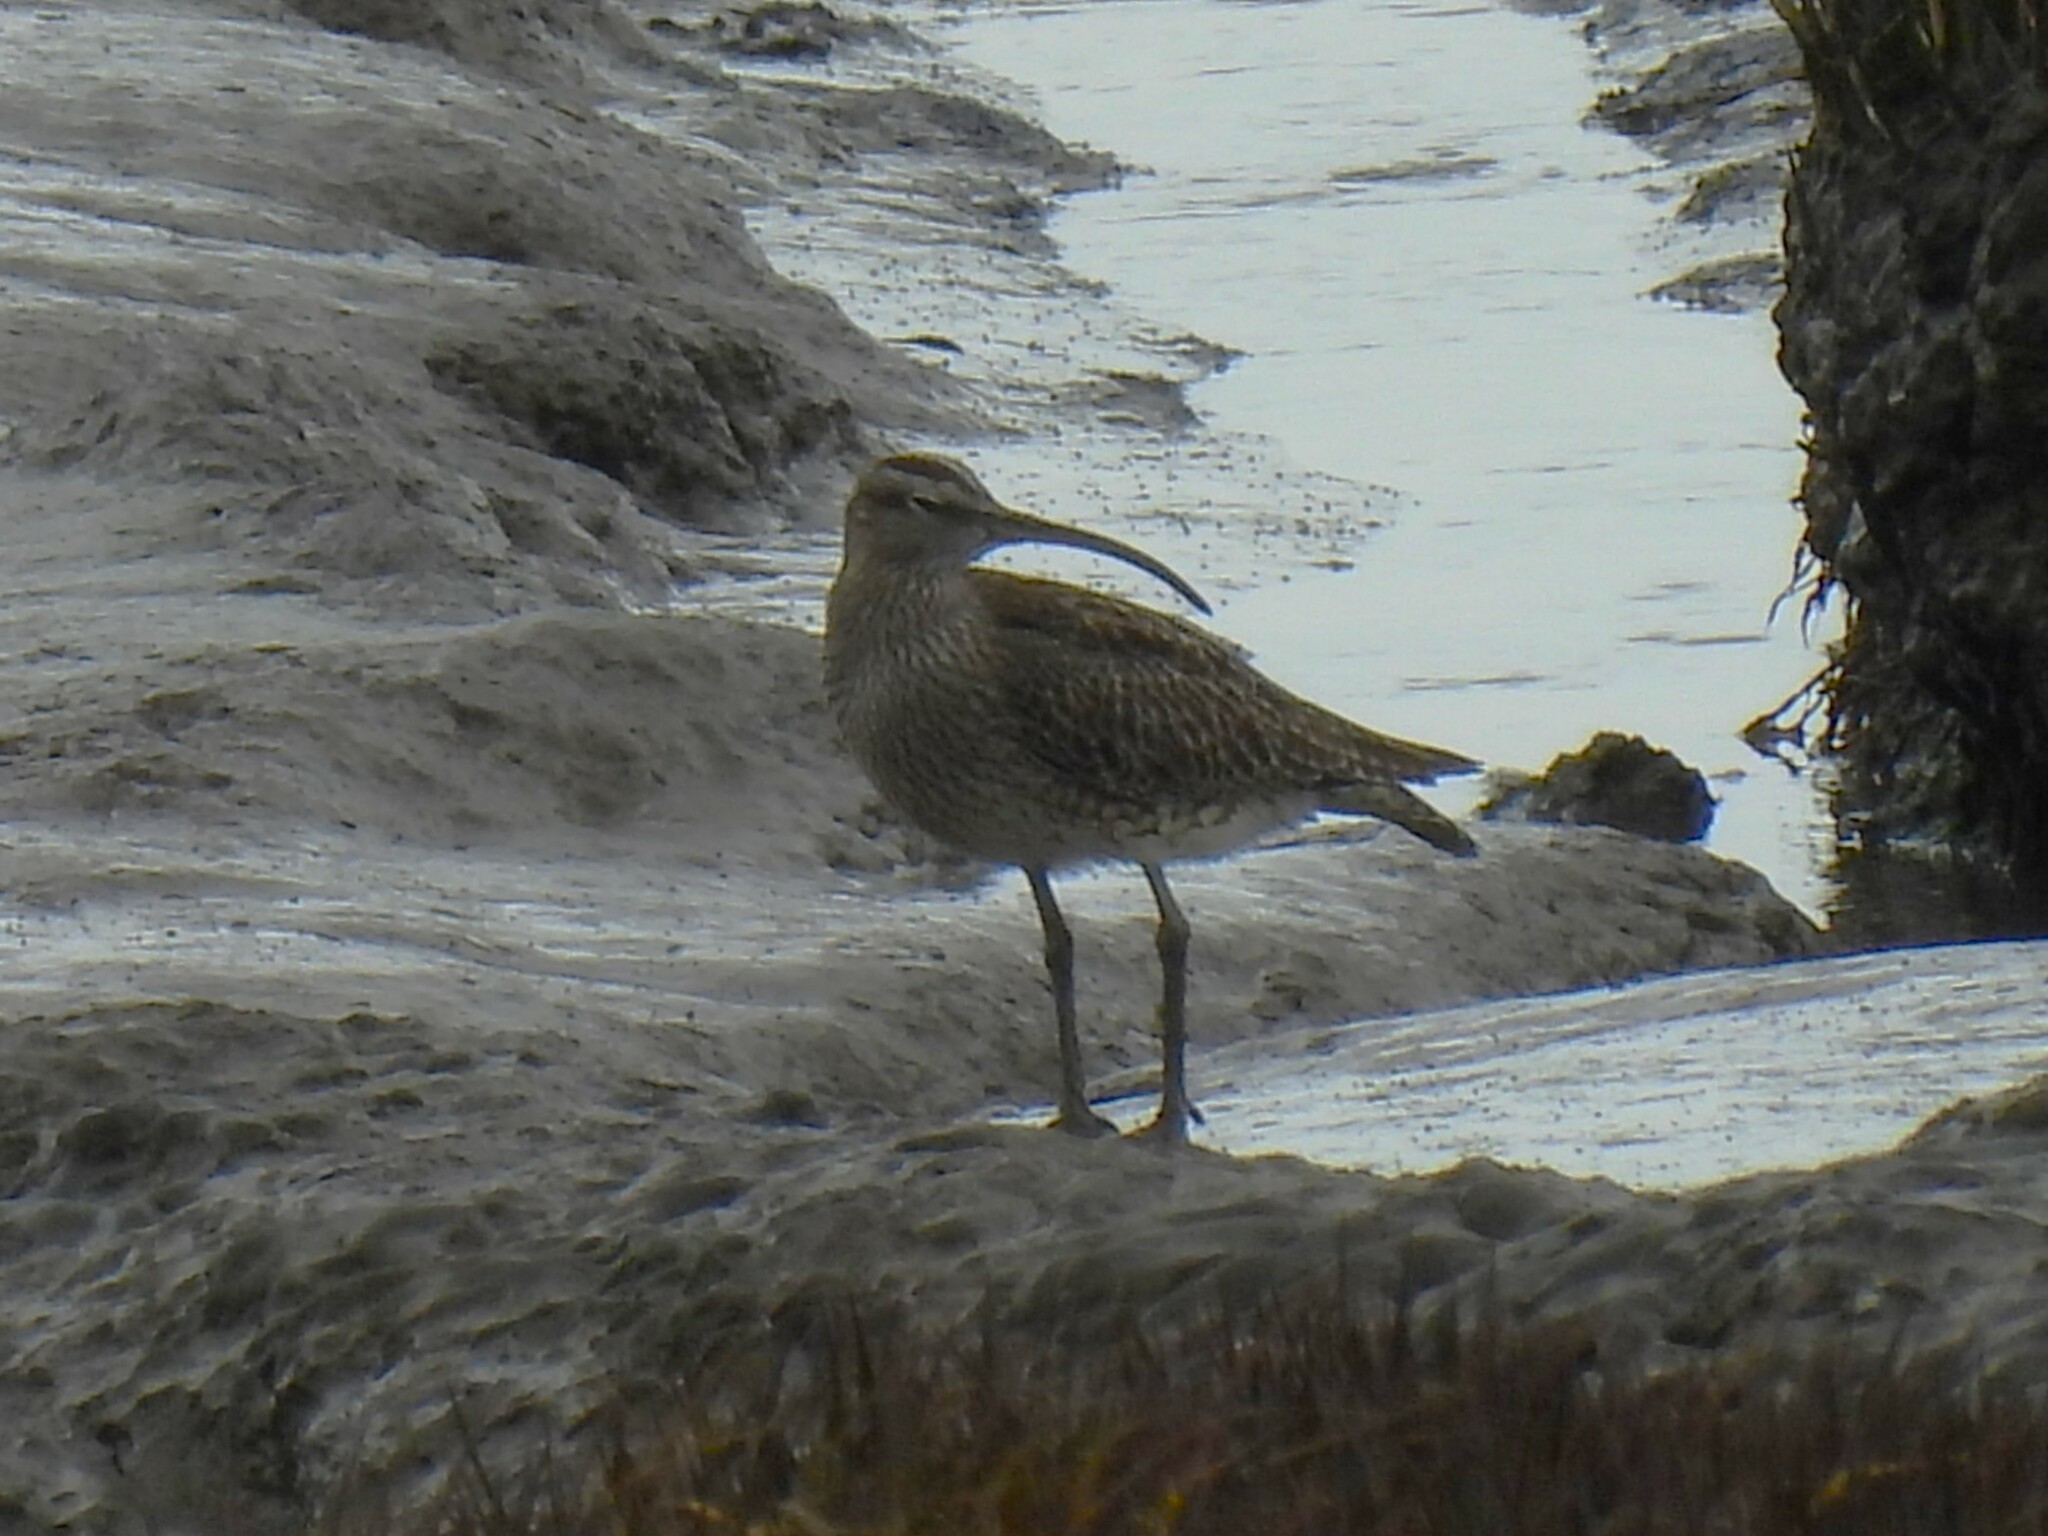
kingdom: Animalia
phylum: Chordata
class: Aves
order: Charadriiformes
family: Scolopacidae
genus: Numenius
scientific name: Numenius phaeopus
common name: Whimbrel
